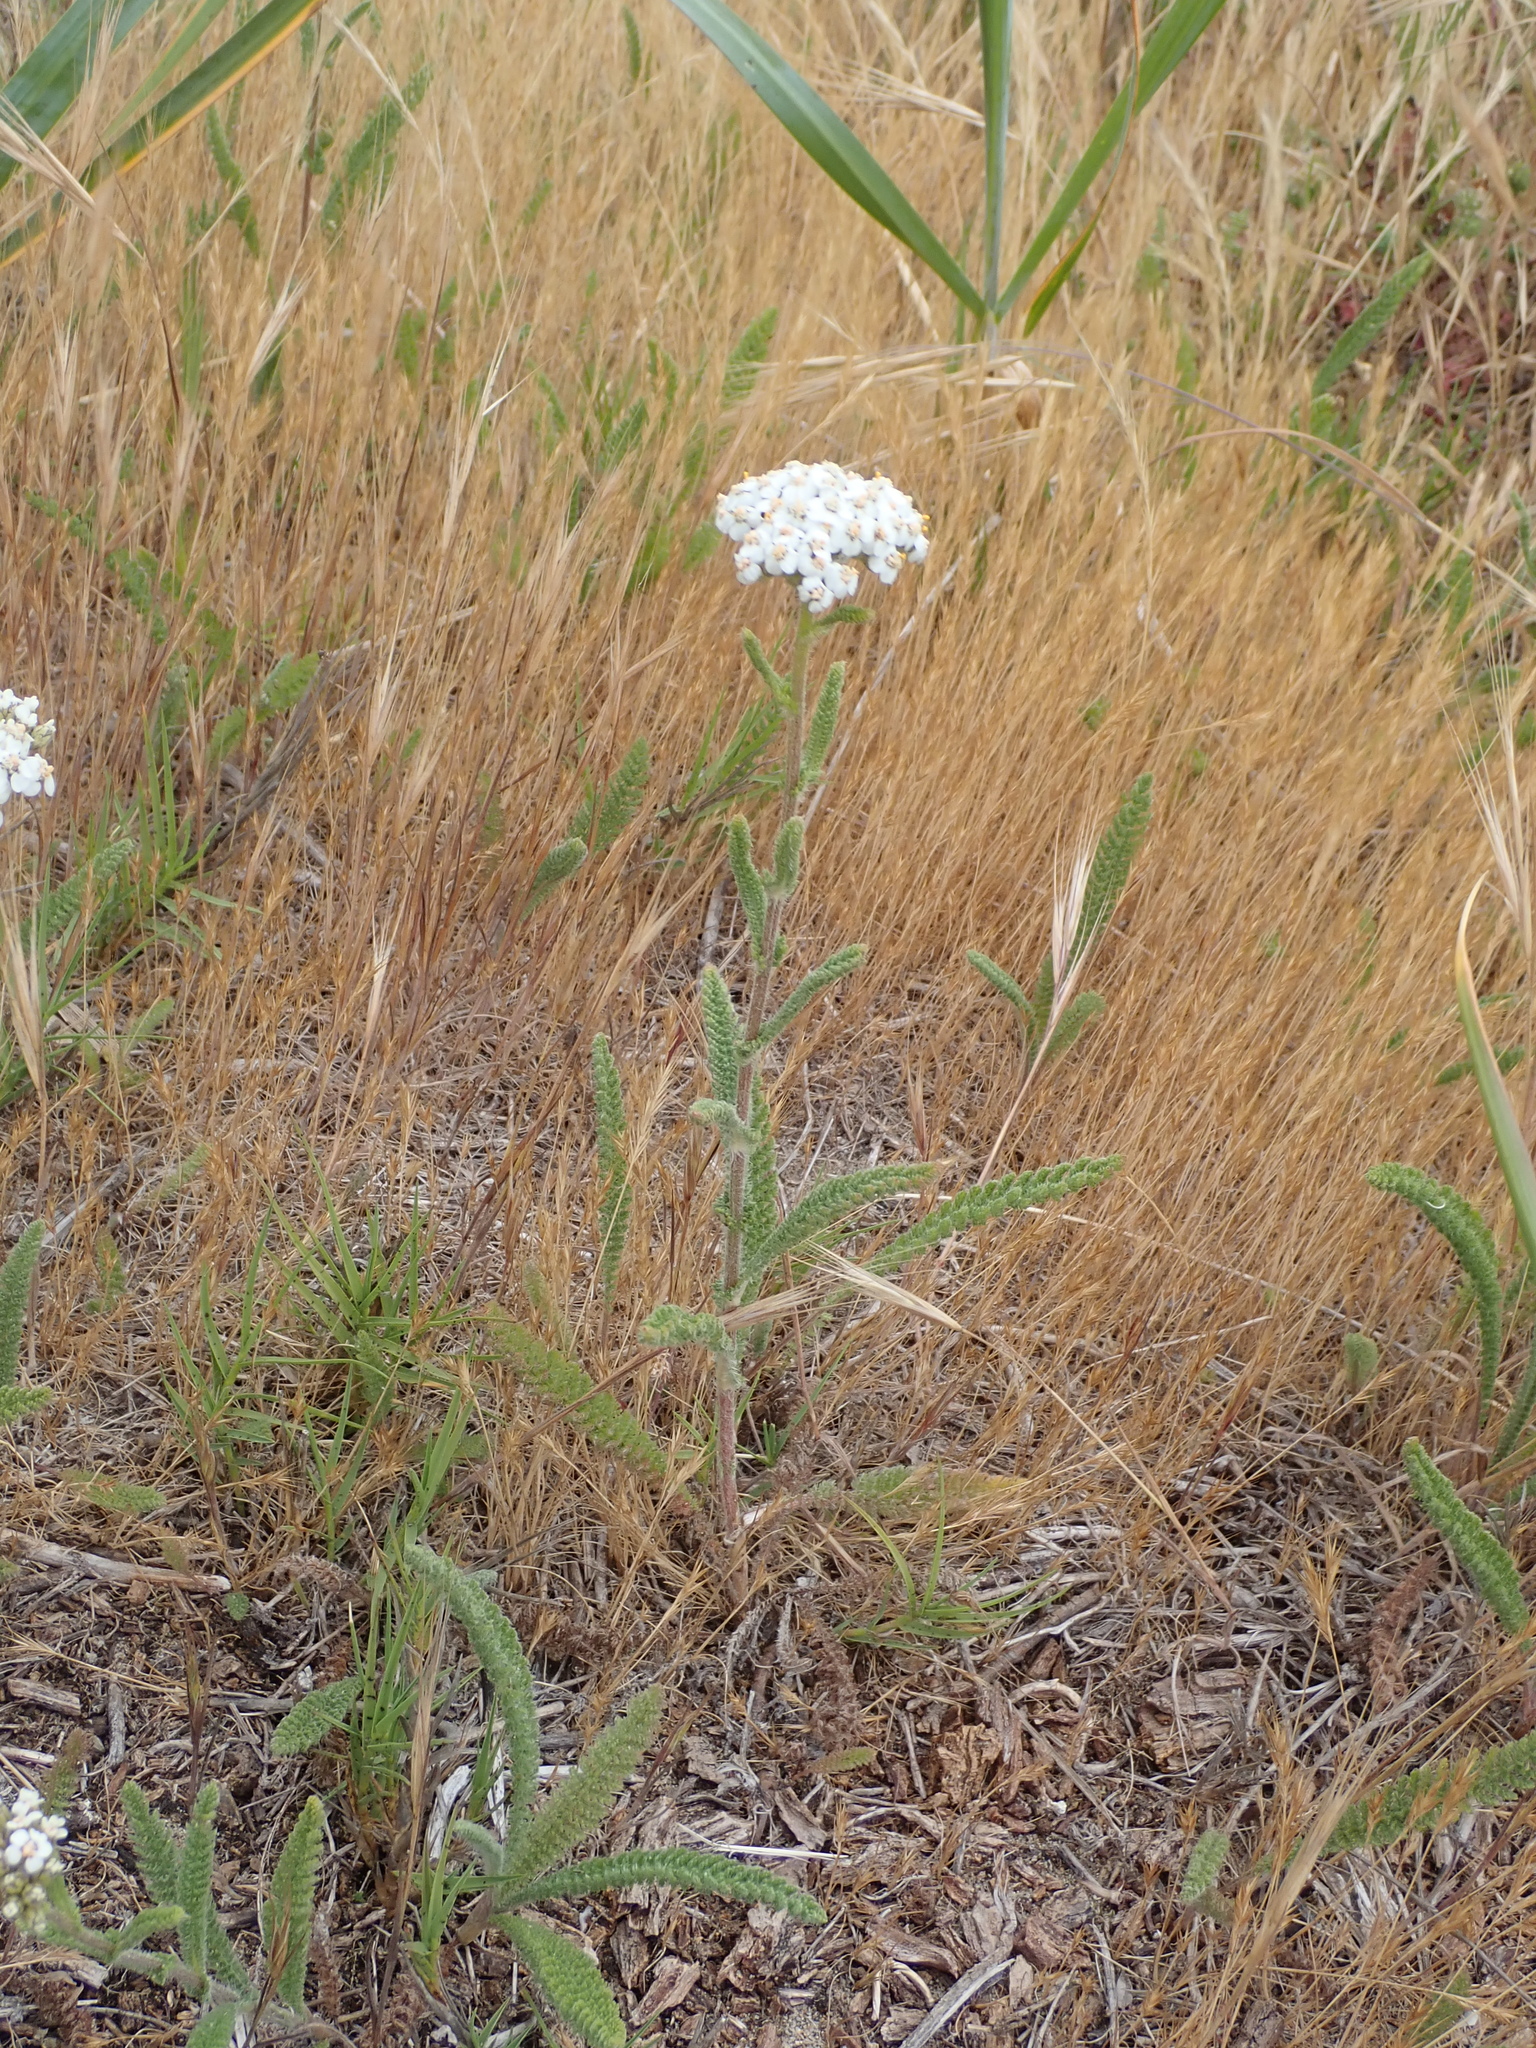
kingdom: Plantae
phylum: Tracheophyta
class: Magnoliopsida
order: Asterales
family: Asteraceae
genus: Achillea
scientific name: Achillea millefolium
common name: Yarrow
